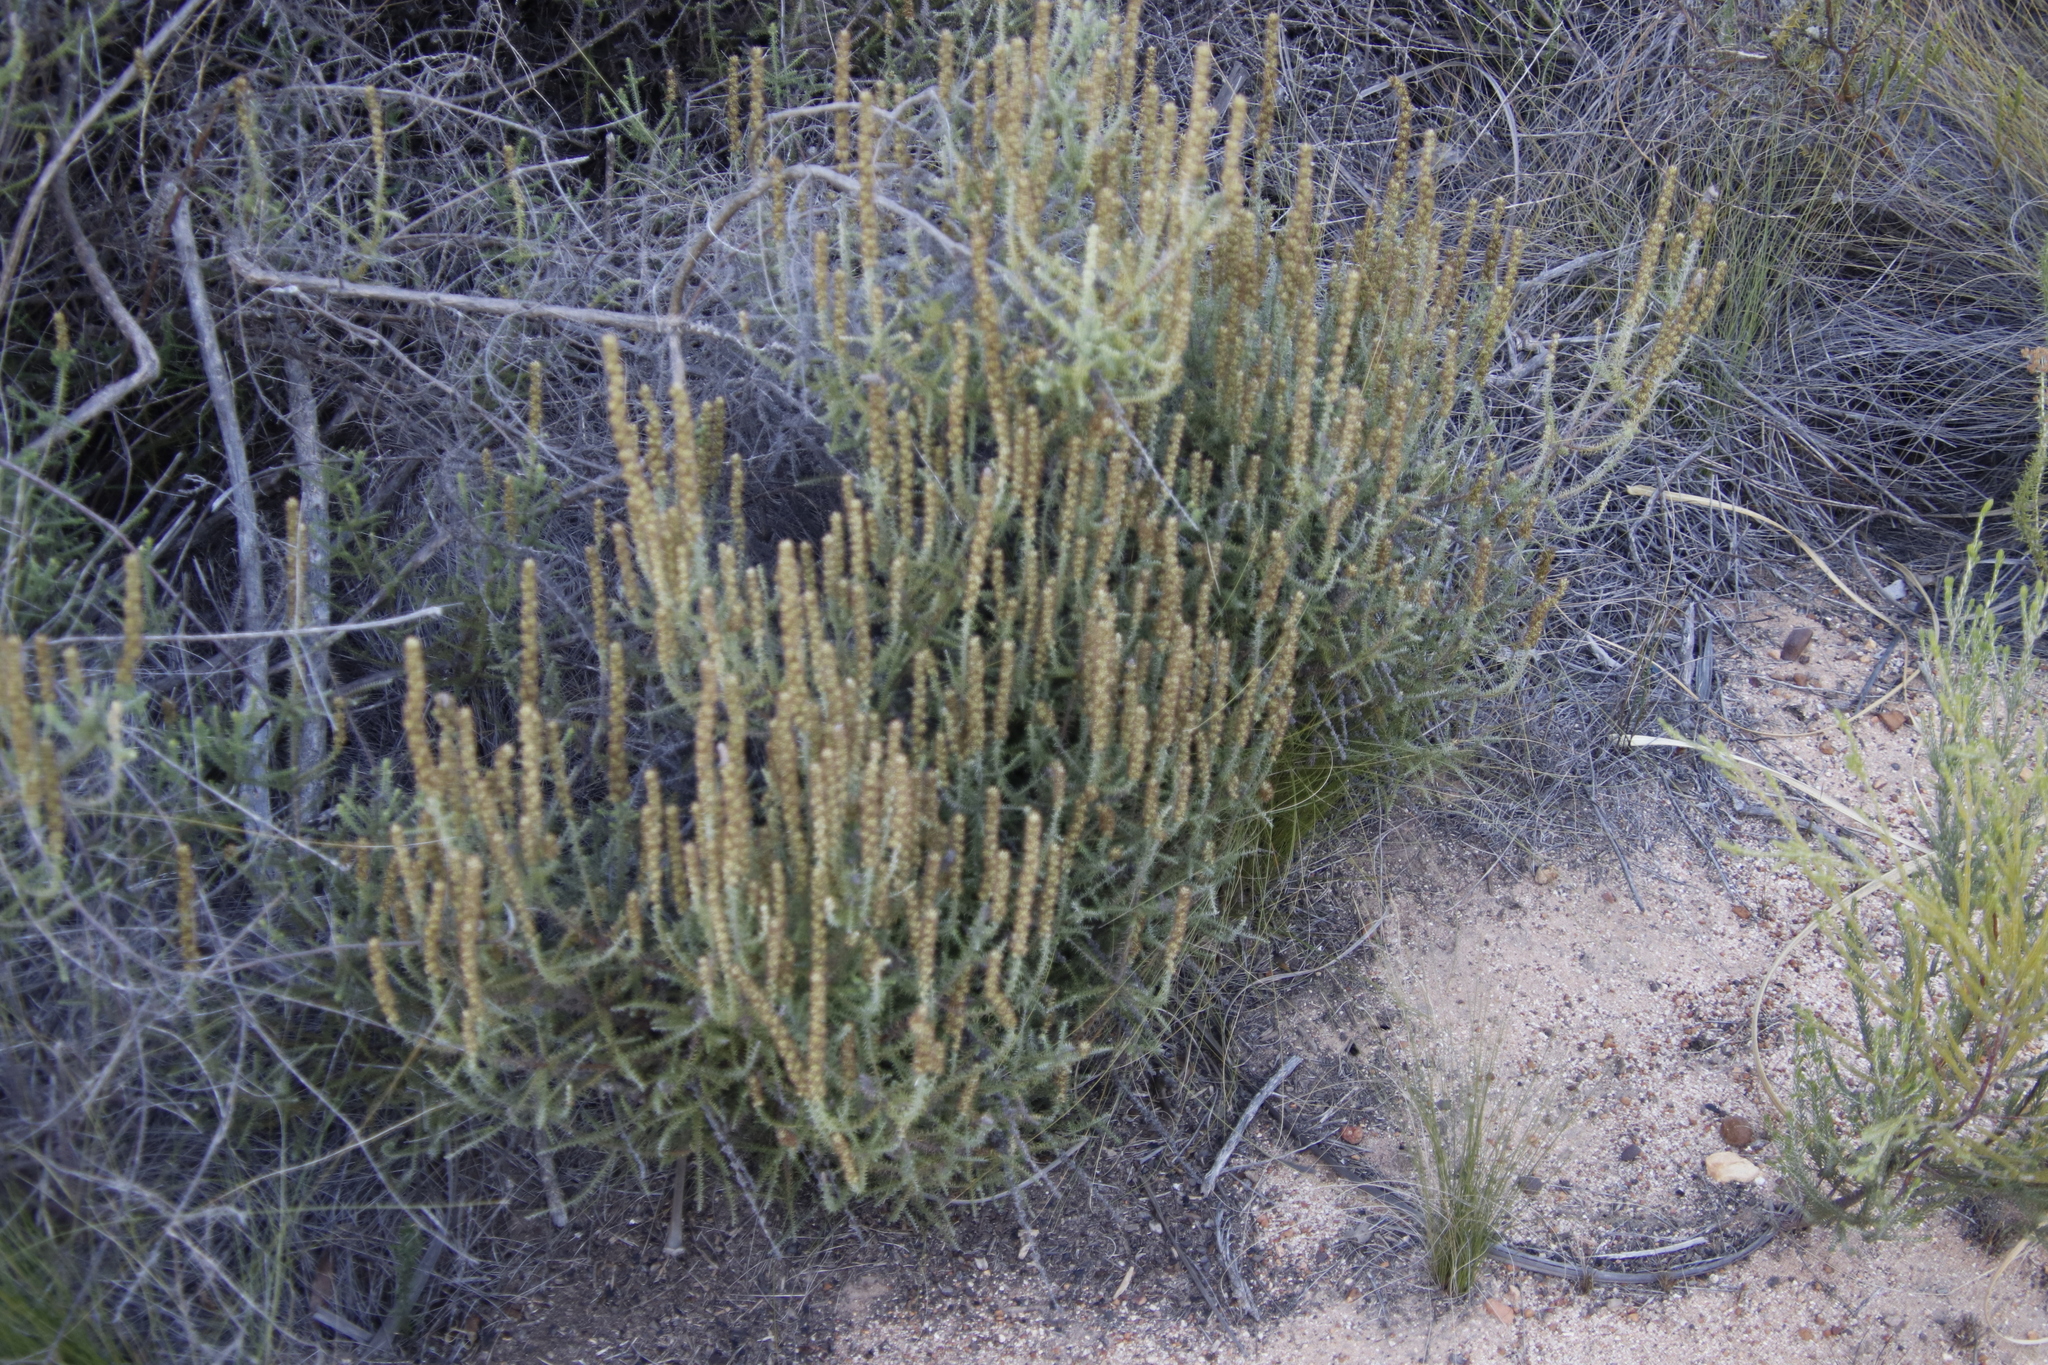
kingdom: Plantae
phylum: Tracheophyta
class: Magnoliopsida
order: Asterales
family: Asteraceae
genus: Seriphium
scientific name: Seriphium cinereum
